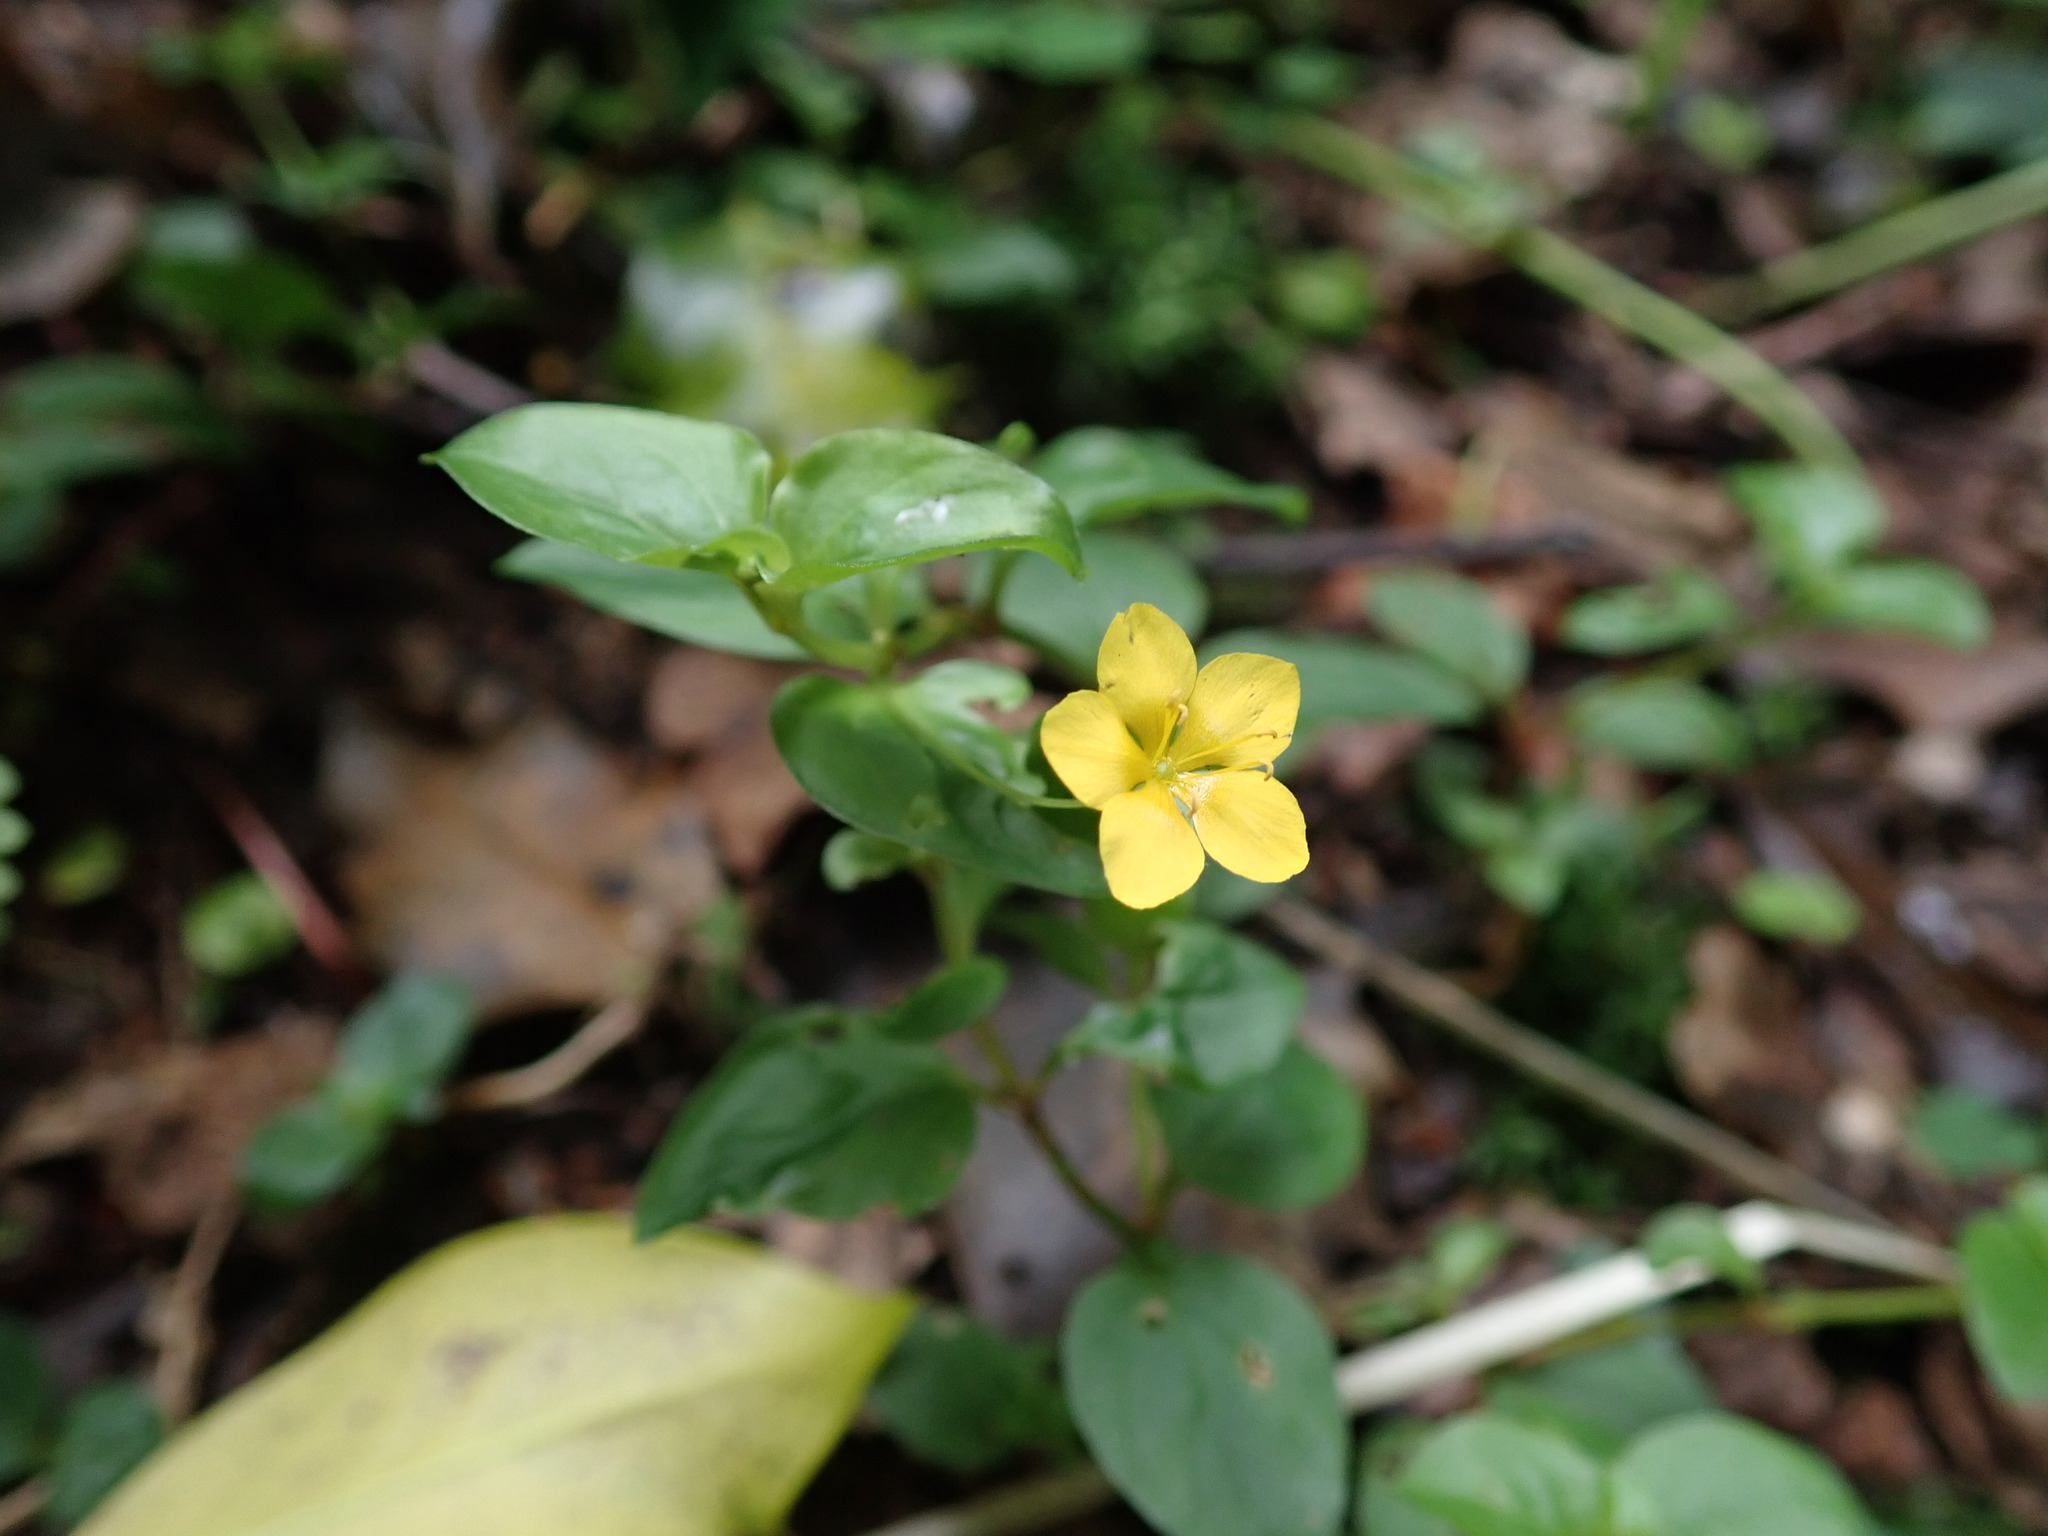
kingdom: Plantae
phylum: Tracheophyta
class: Magnoliopsida
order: Ericales
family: Primulaceae
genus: Lysimachia
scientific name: Lysimachia nemorum
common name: Yellow pimpernel
